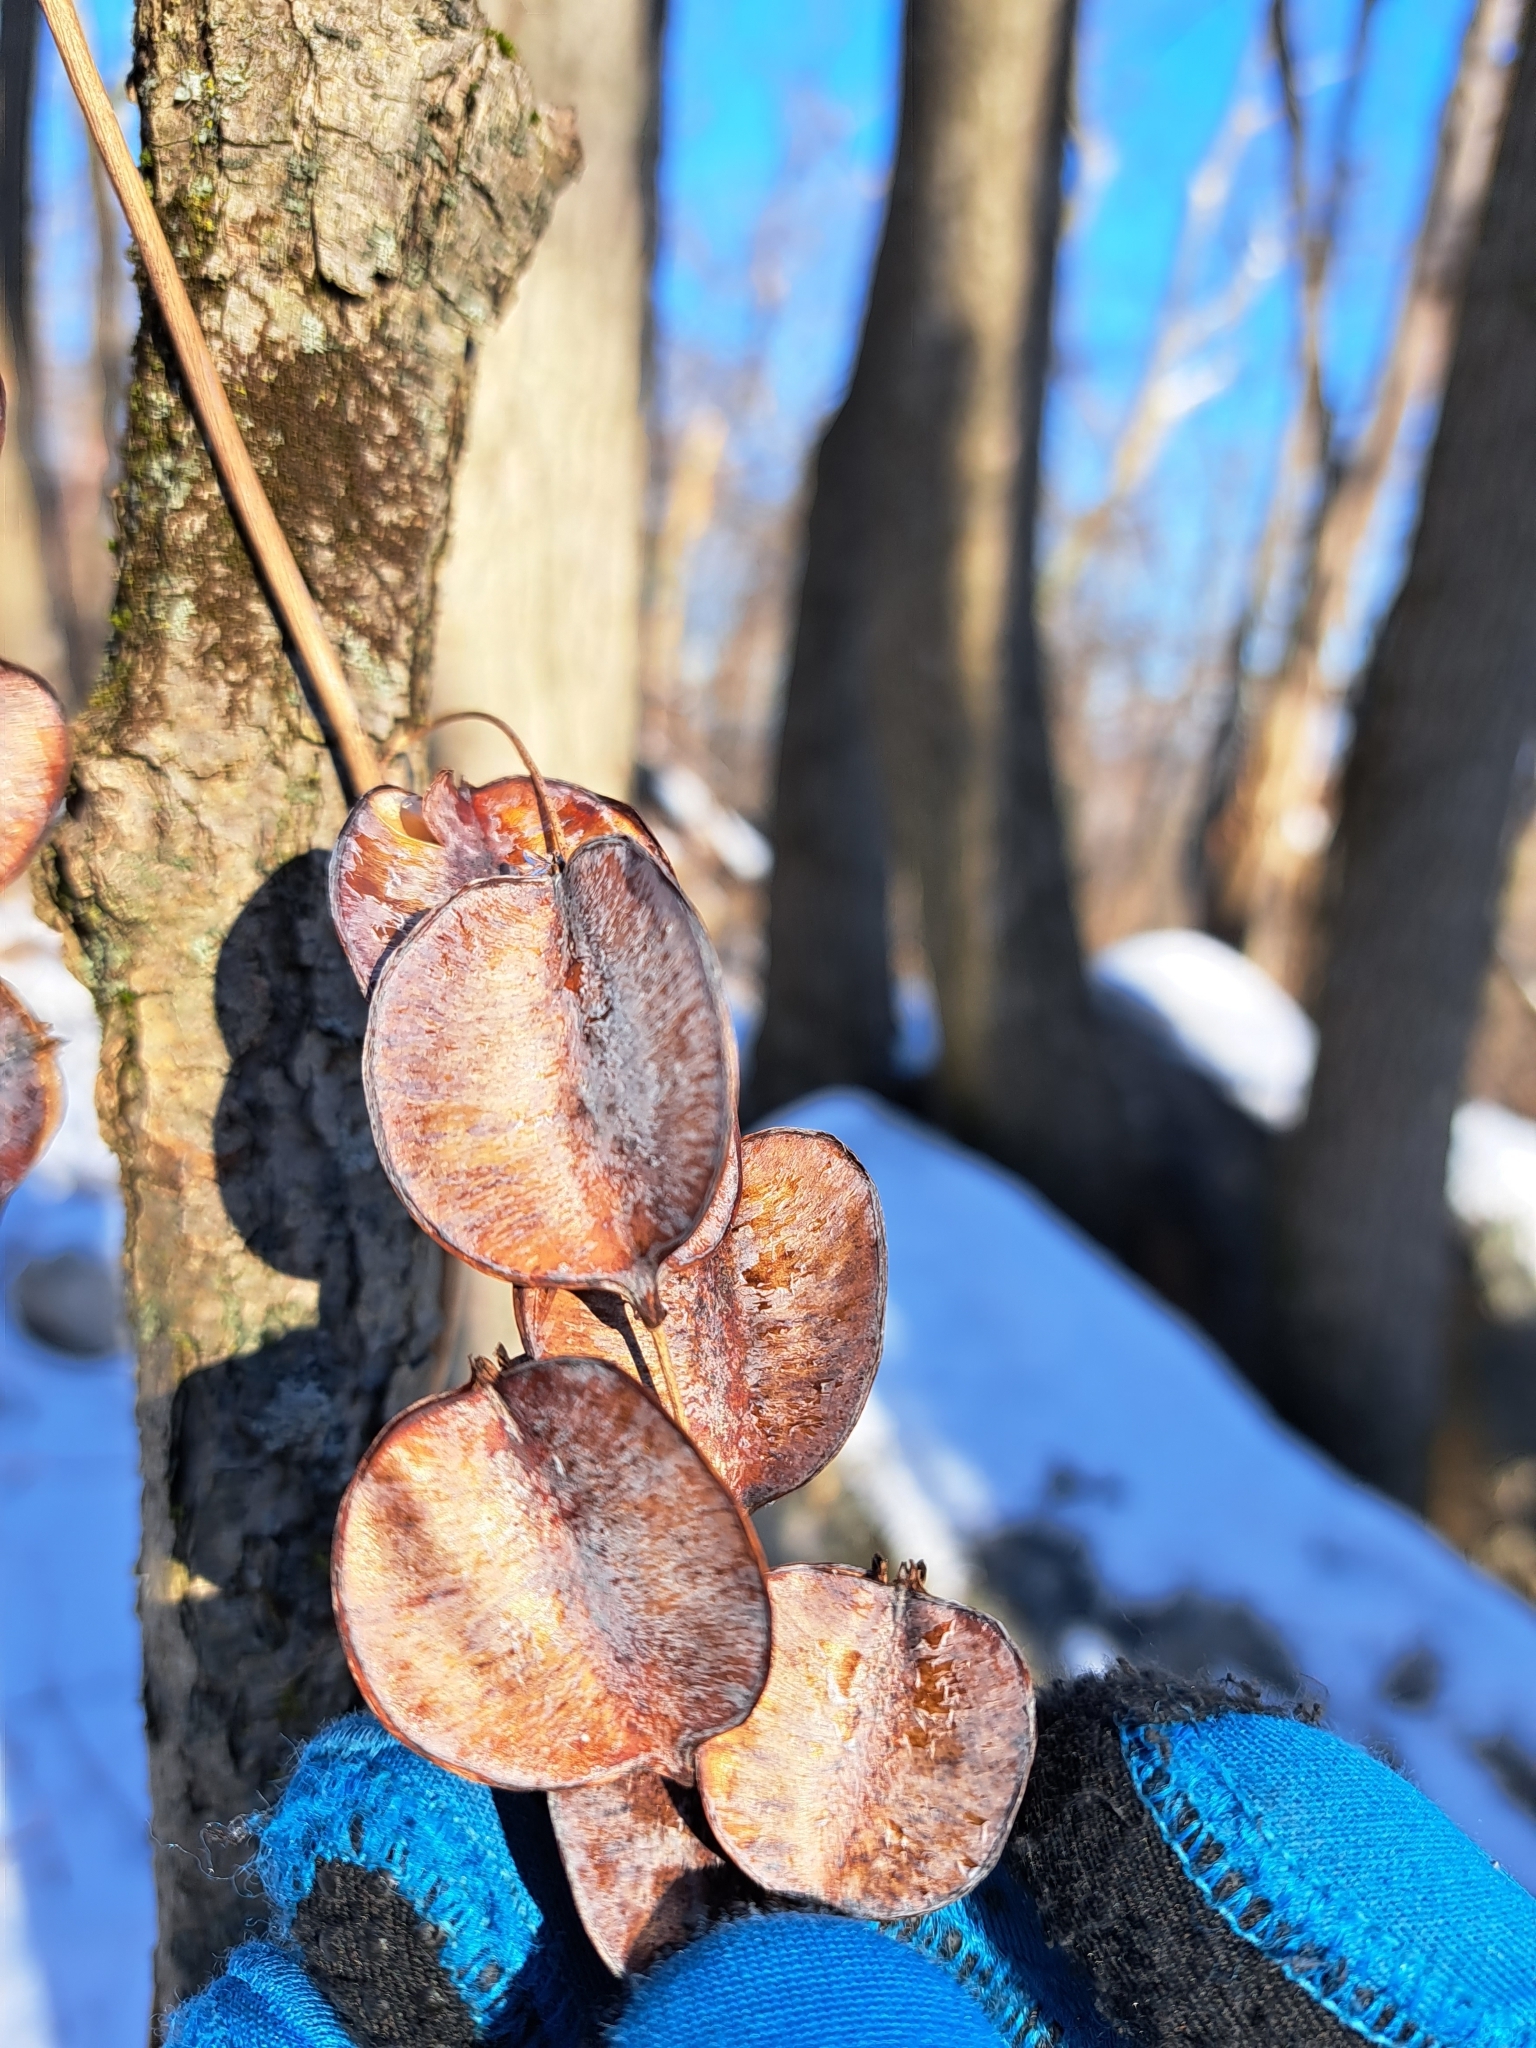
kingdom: Plantae
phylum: Tracheophyta
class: Liliopsida
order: Dioscoreales
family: Dioscoreaceae
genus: Dioscorea
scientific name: Dioscorea villosa
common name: Wild yam
